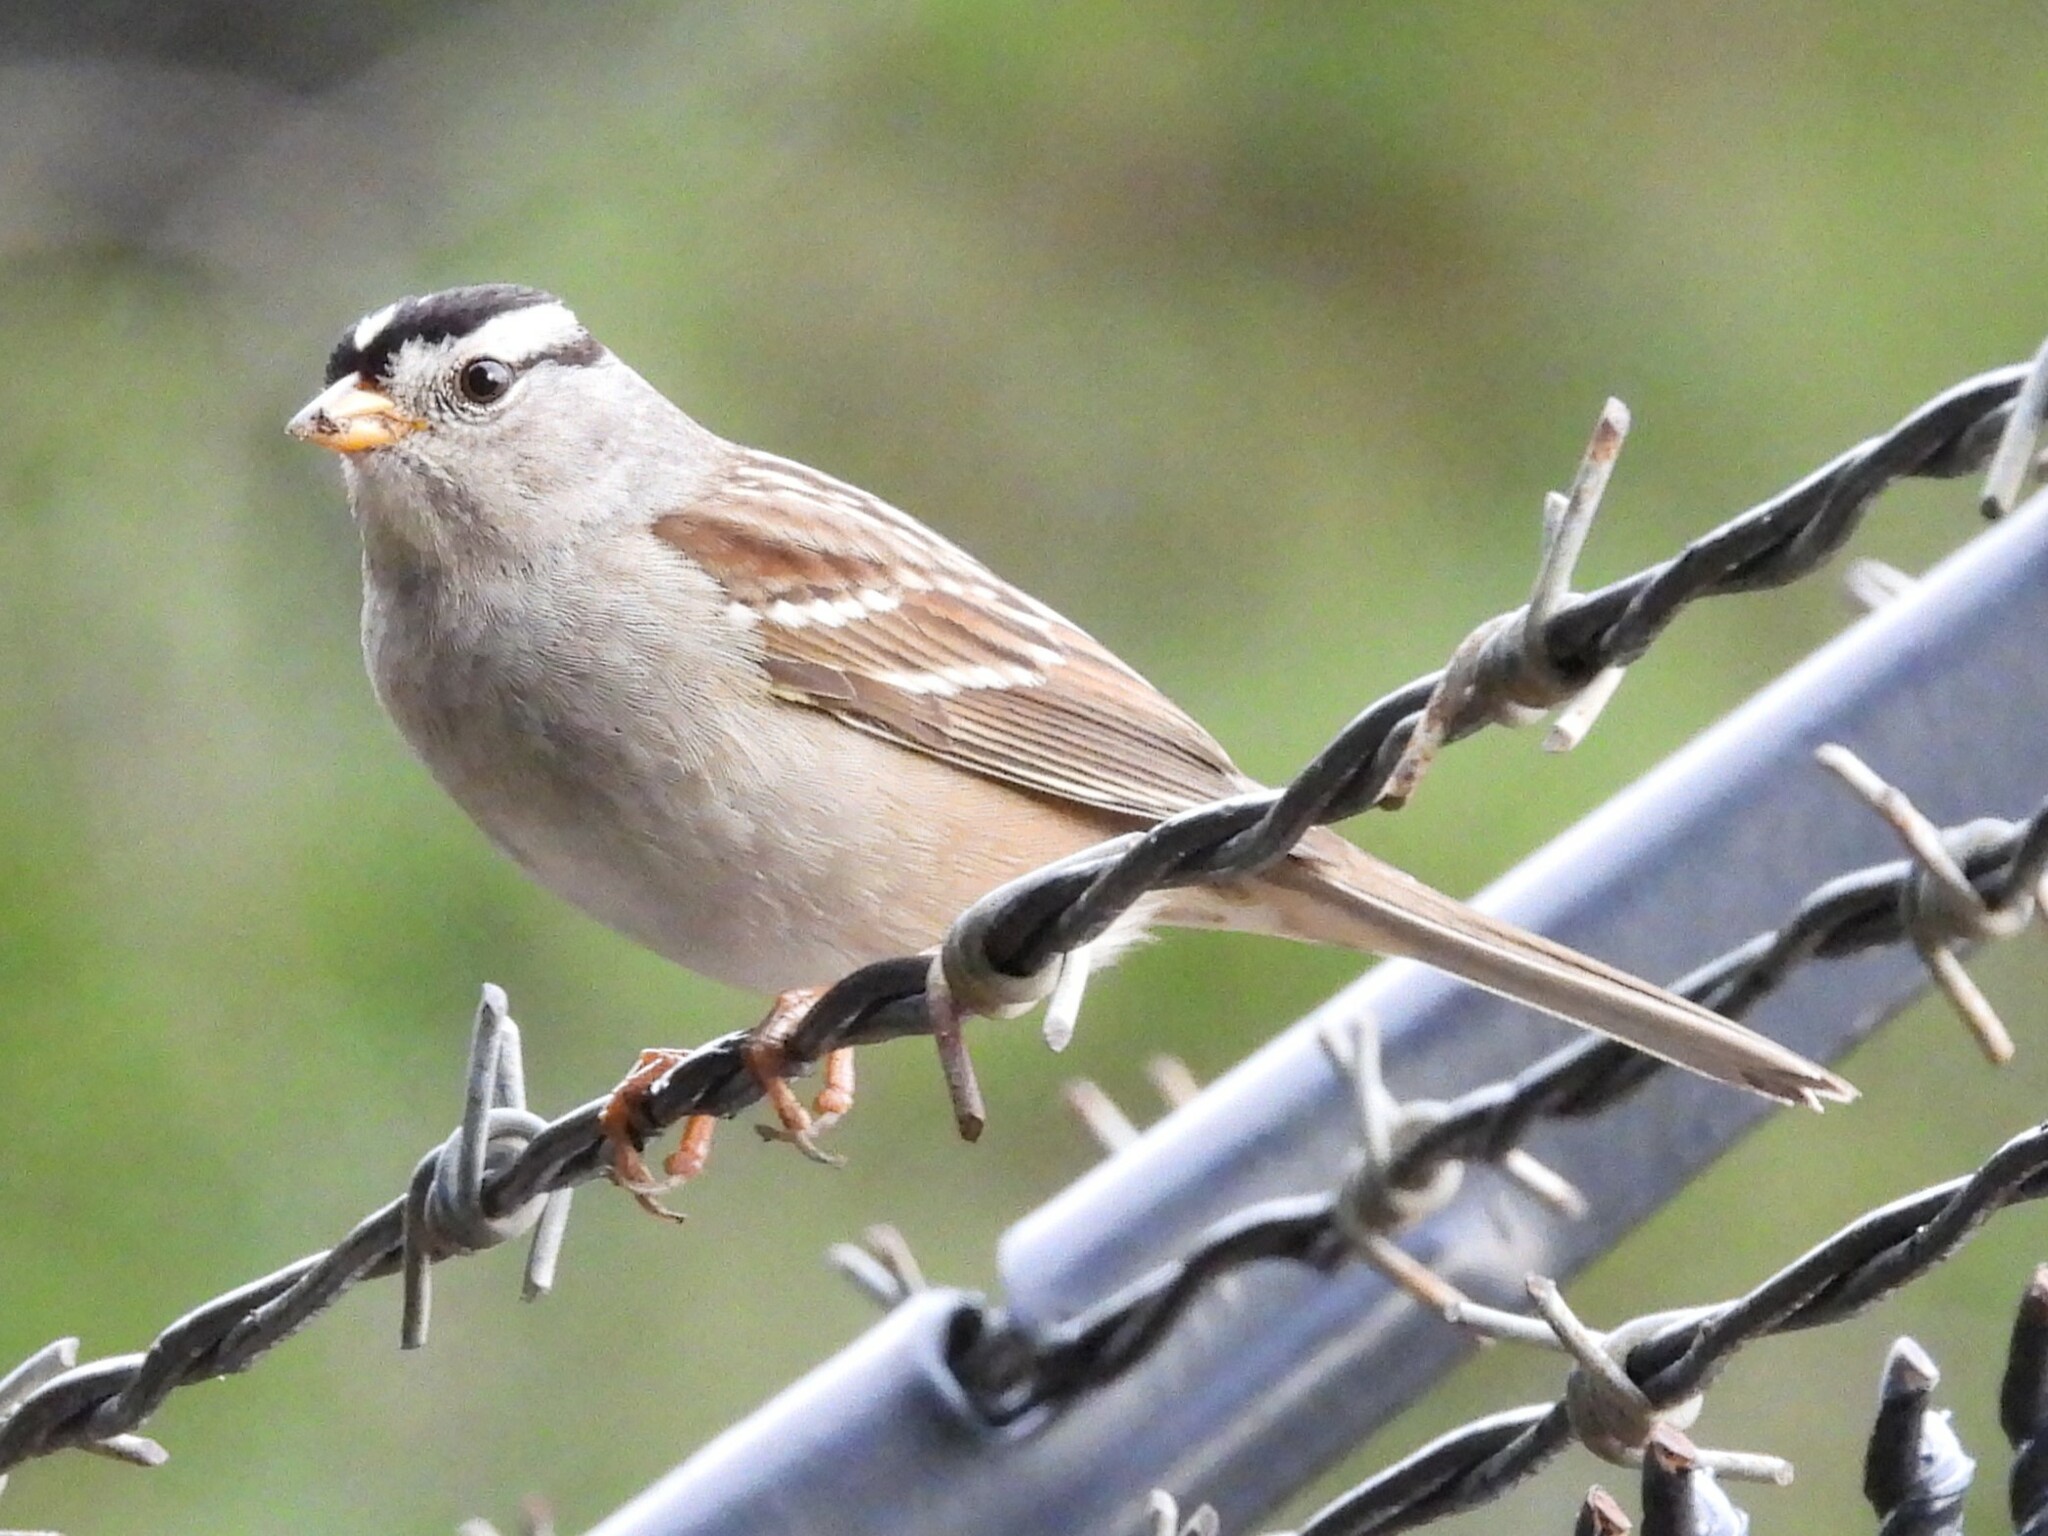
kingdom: Animalia
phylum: Chordata
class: Aves
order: Passeriformes
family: Passerellidae
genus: Zonotrichia
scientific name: Zonotrichia leucophrys
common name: White-crowned sparrow
